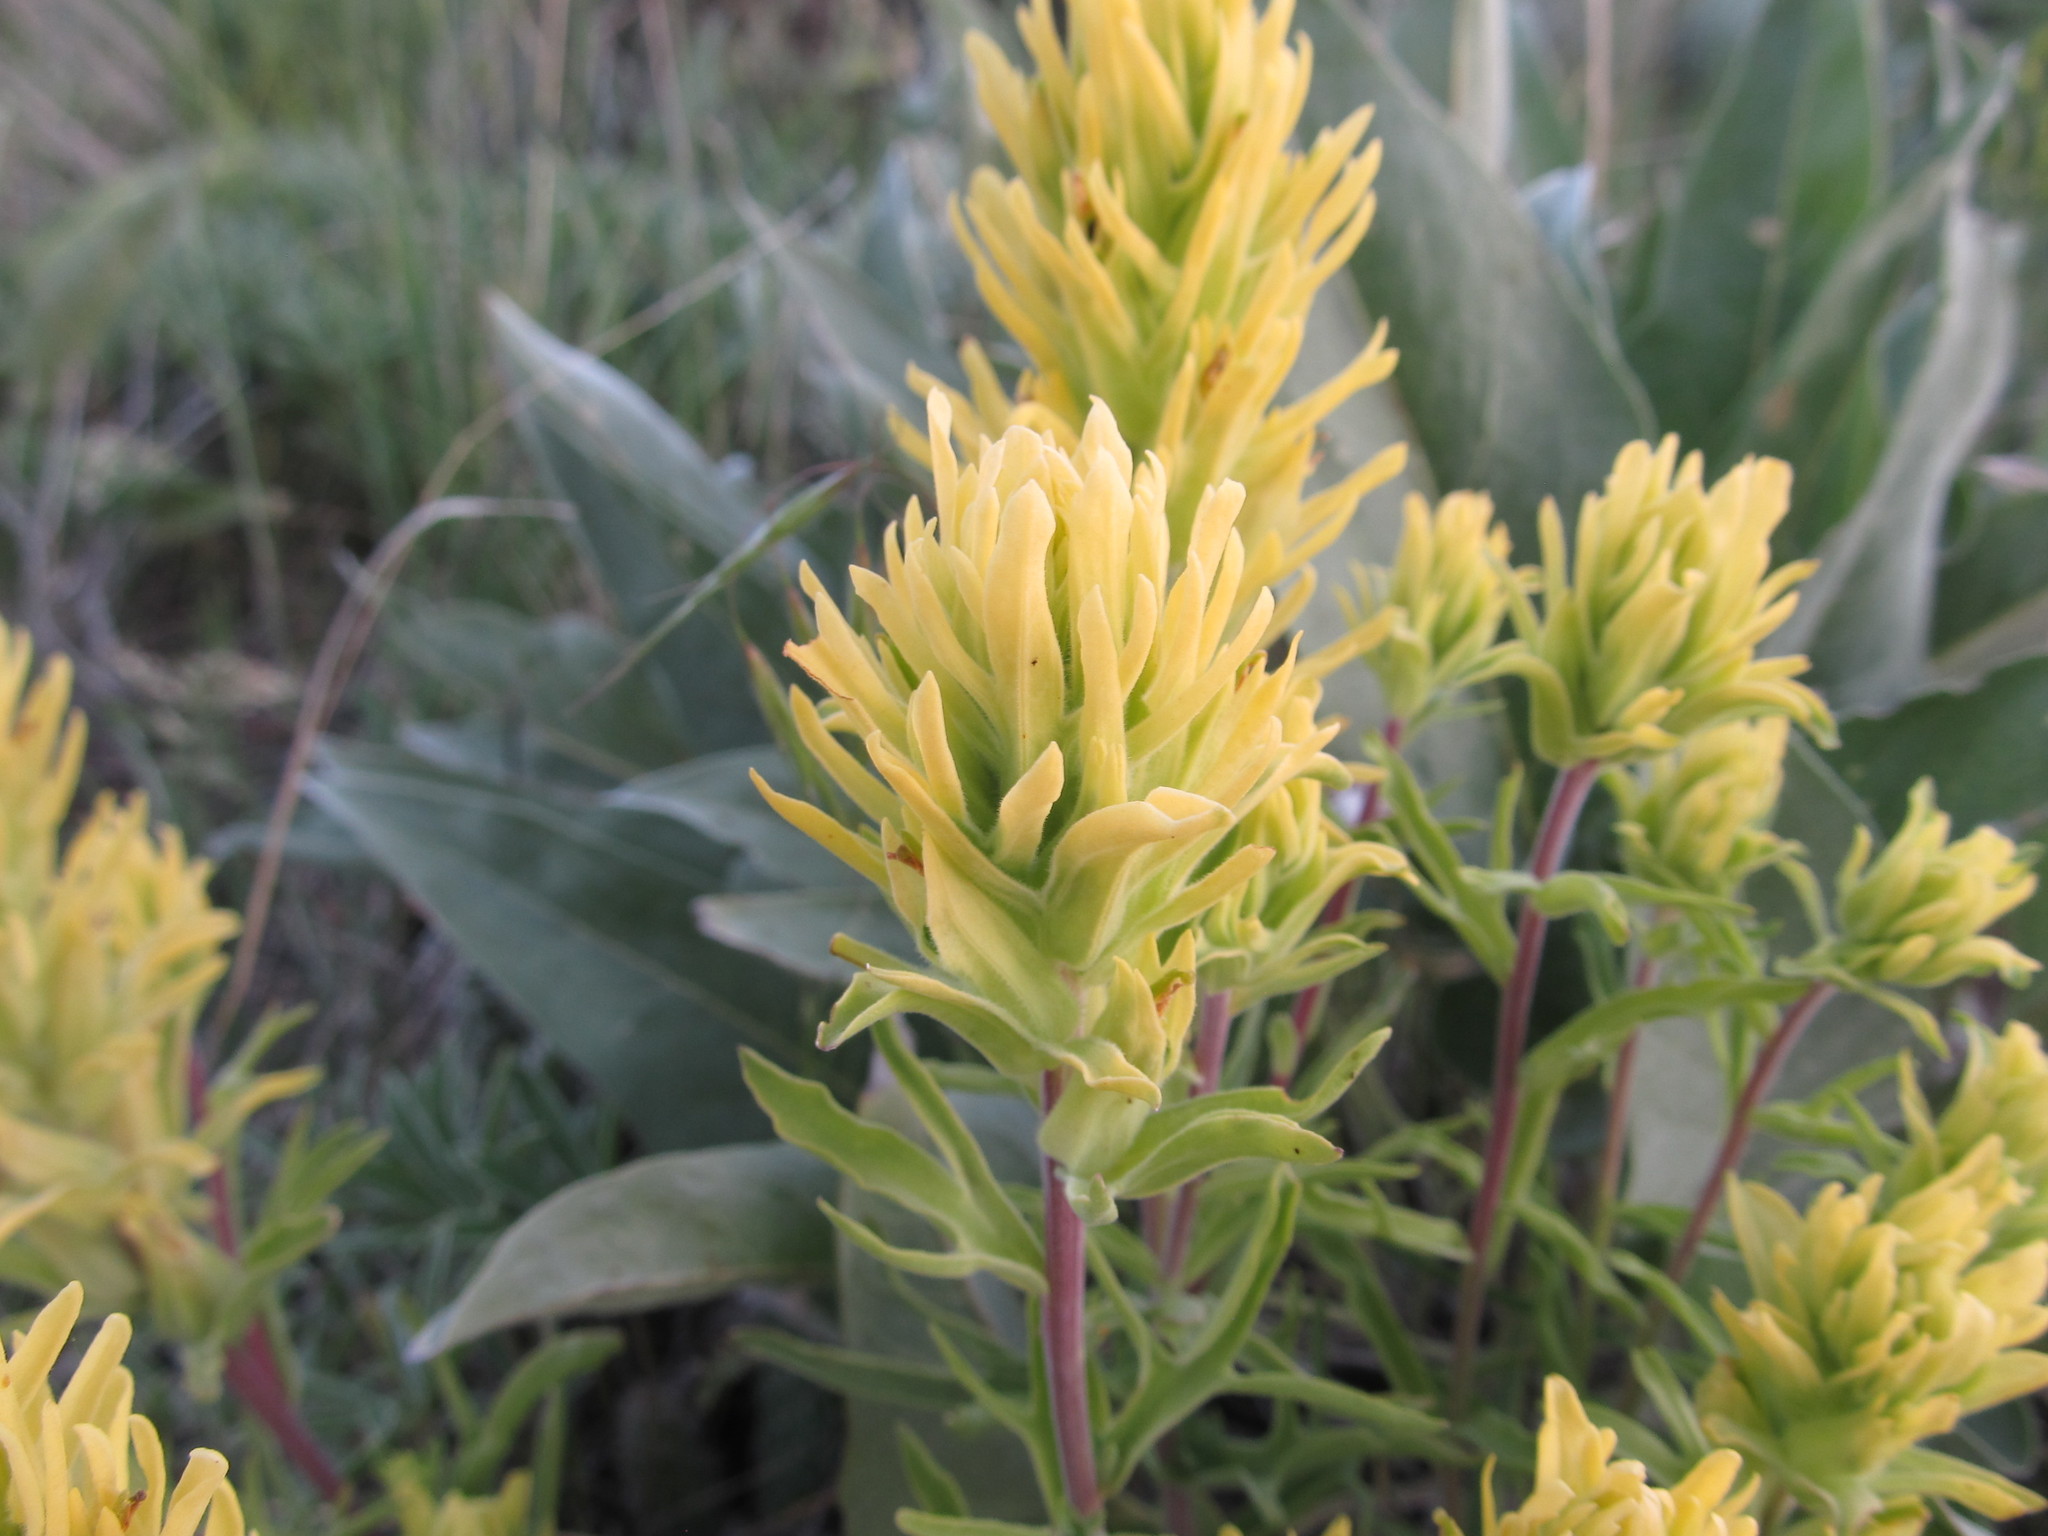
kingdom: Plantae
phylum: Tracheophyta
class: Magnoliopsida
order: Lamiales
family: Orobanchaceae
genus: Castilleja
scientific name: Castilleja flava
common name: Yellow paintbrush
